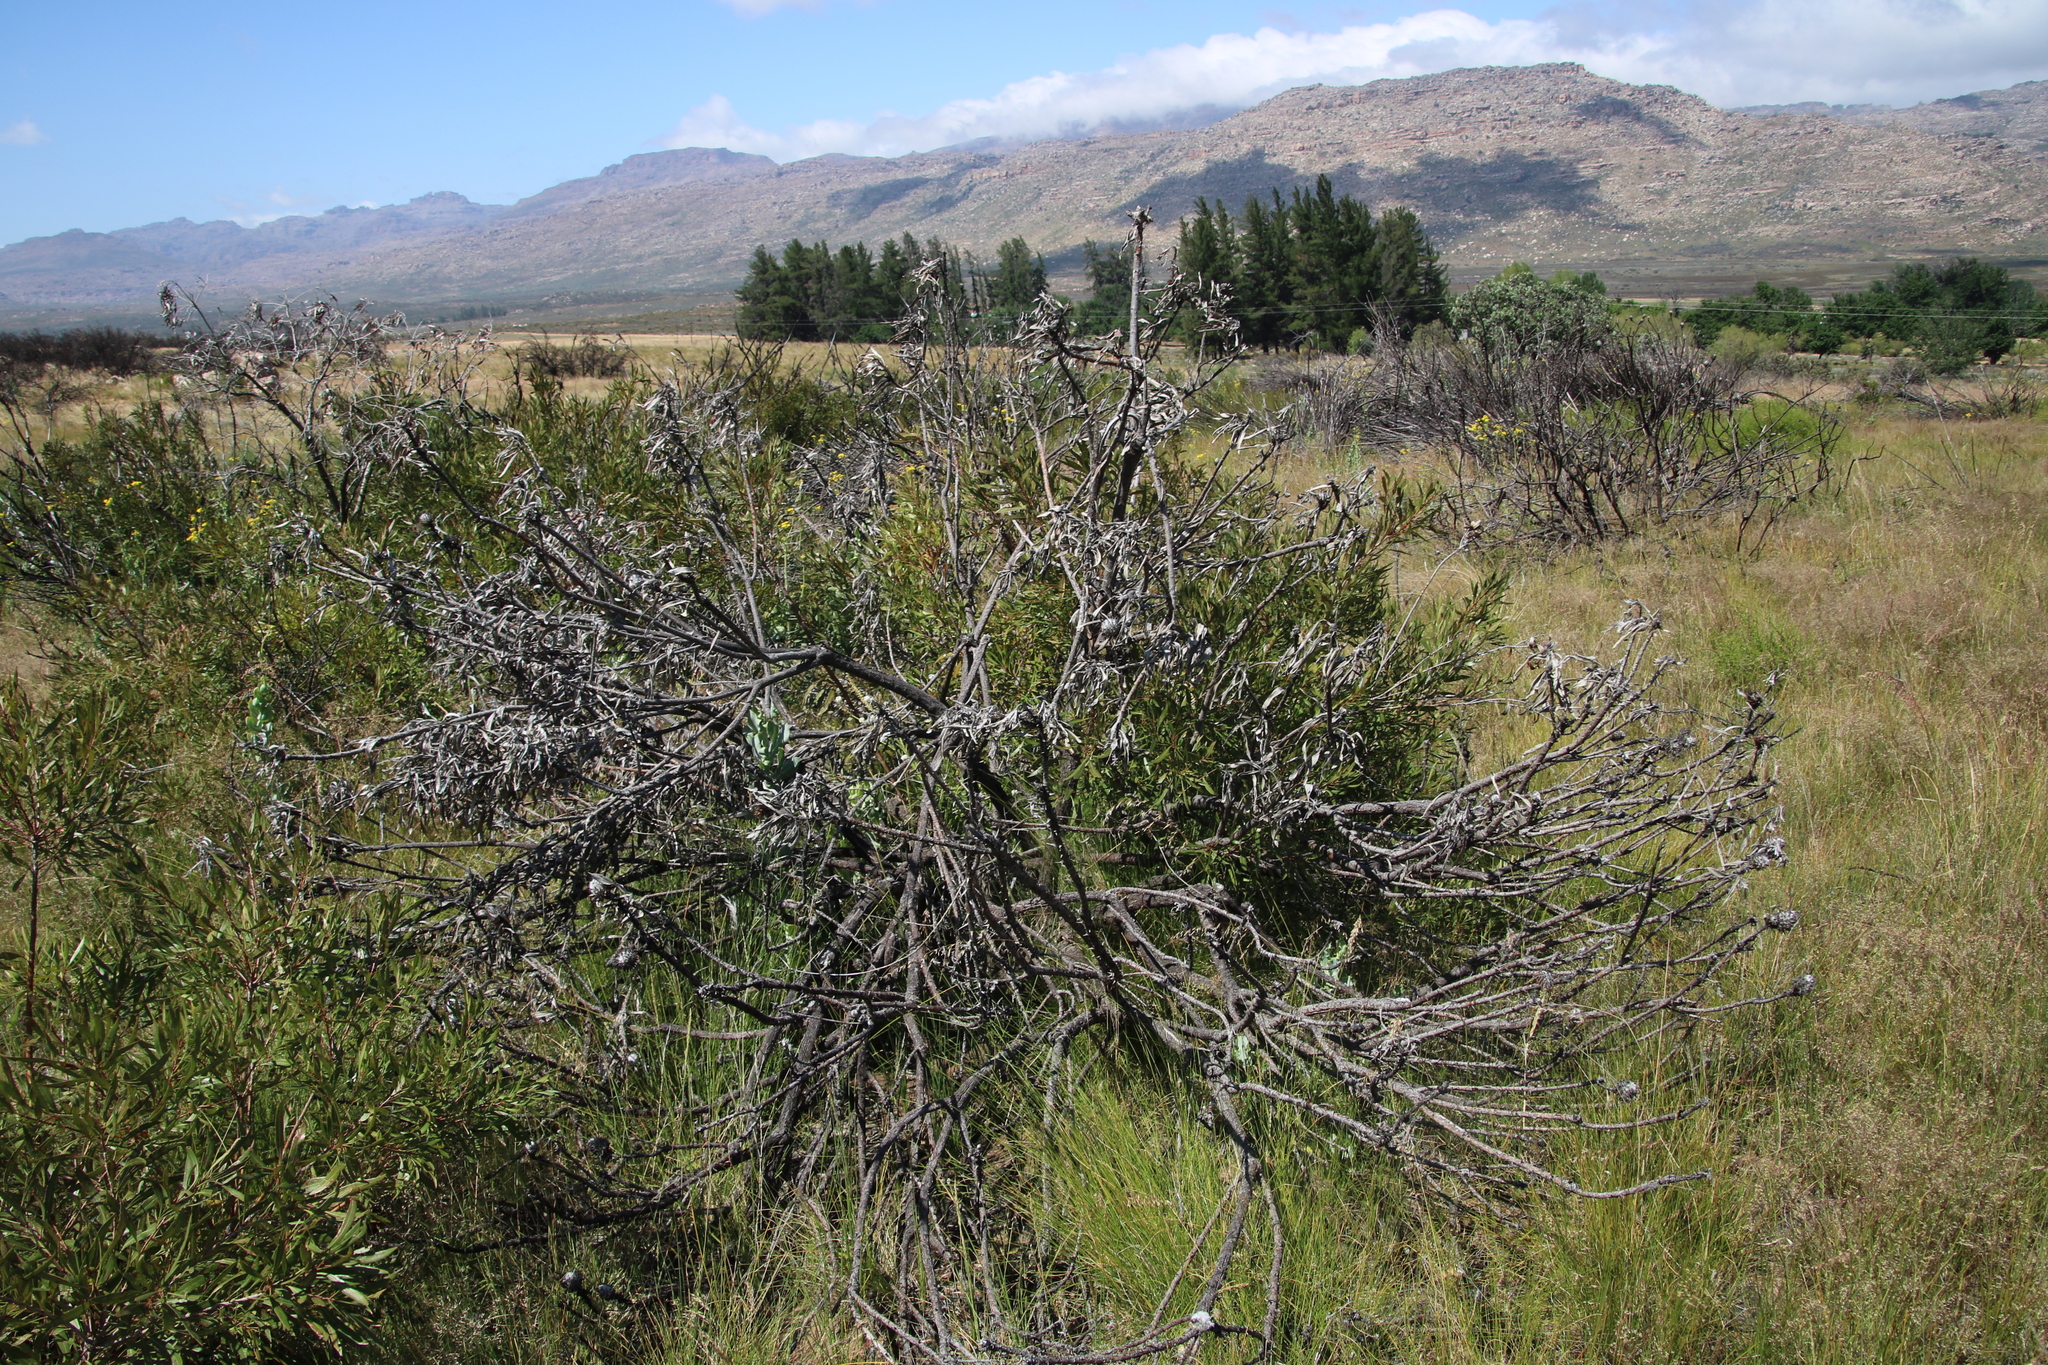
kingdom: Plantae
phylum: Tracheophyta
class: Magnoliopsida
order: Proteales
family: Proteaceae
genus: Leucospermum
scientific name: Leucospermum catherinae
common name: Catherine-wheel pincushion
